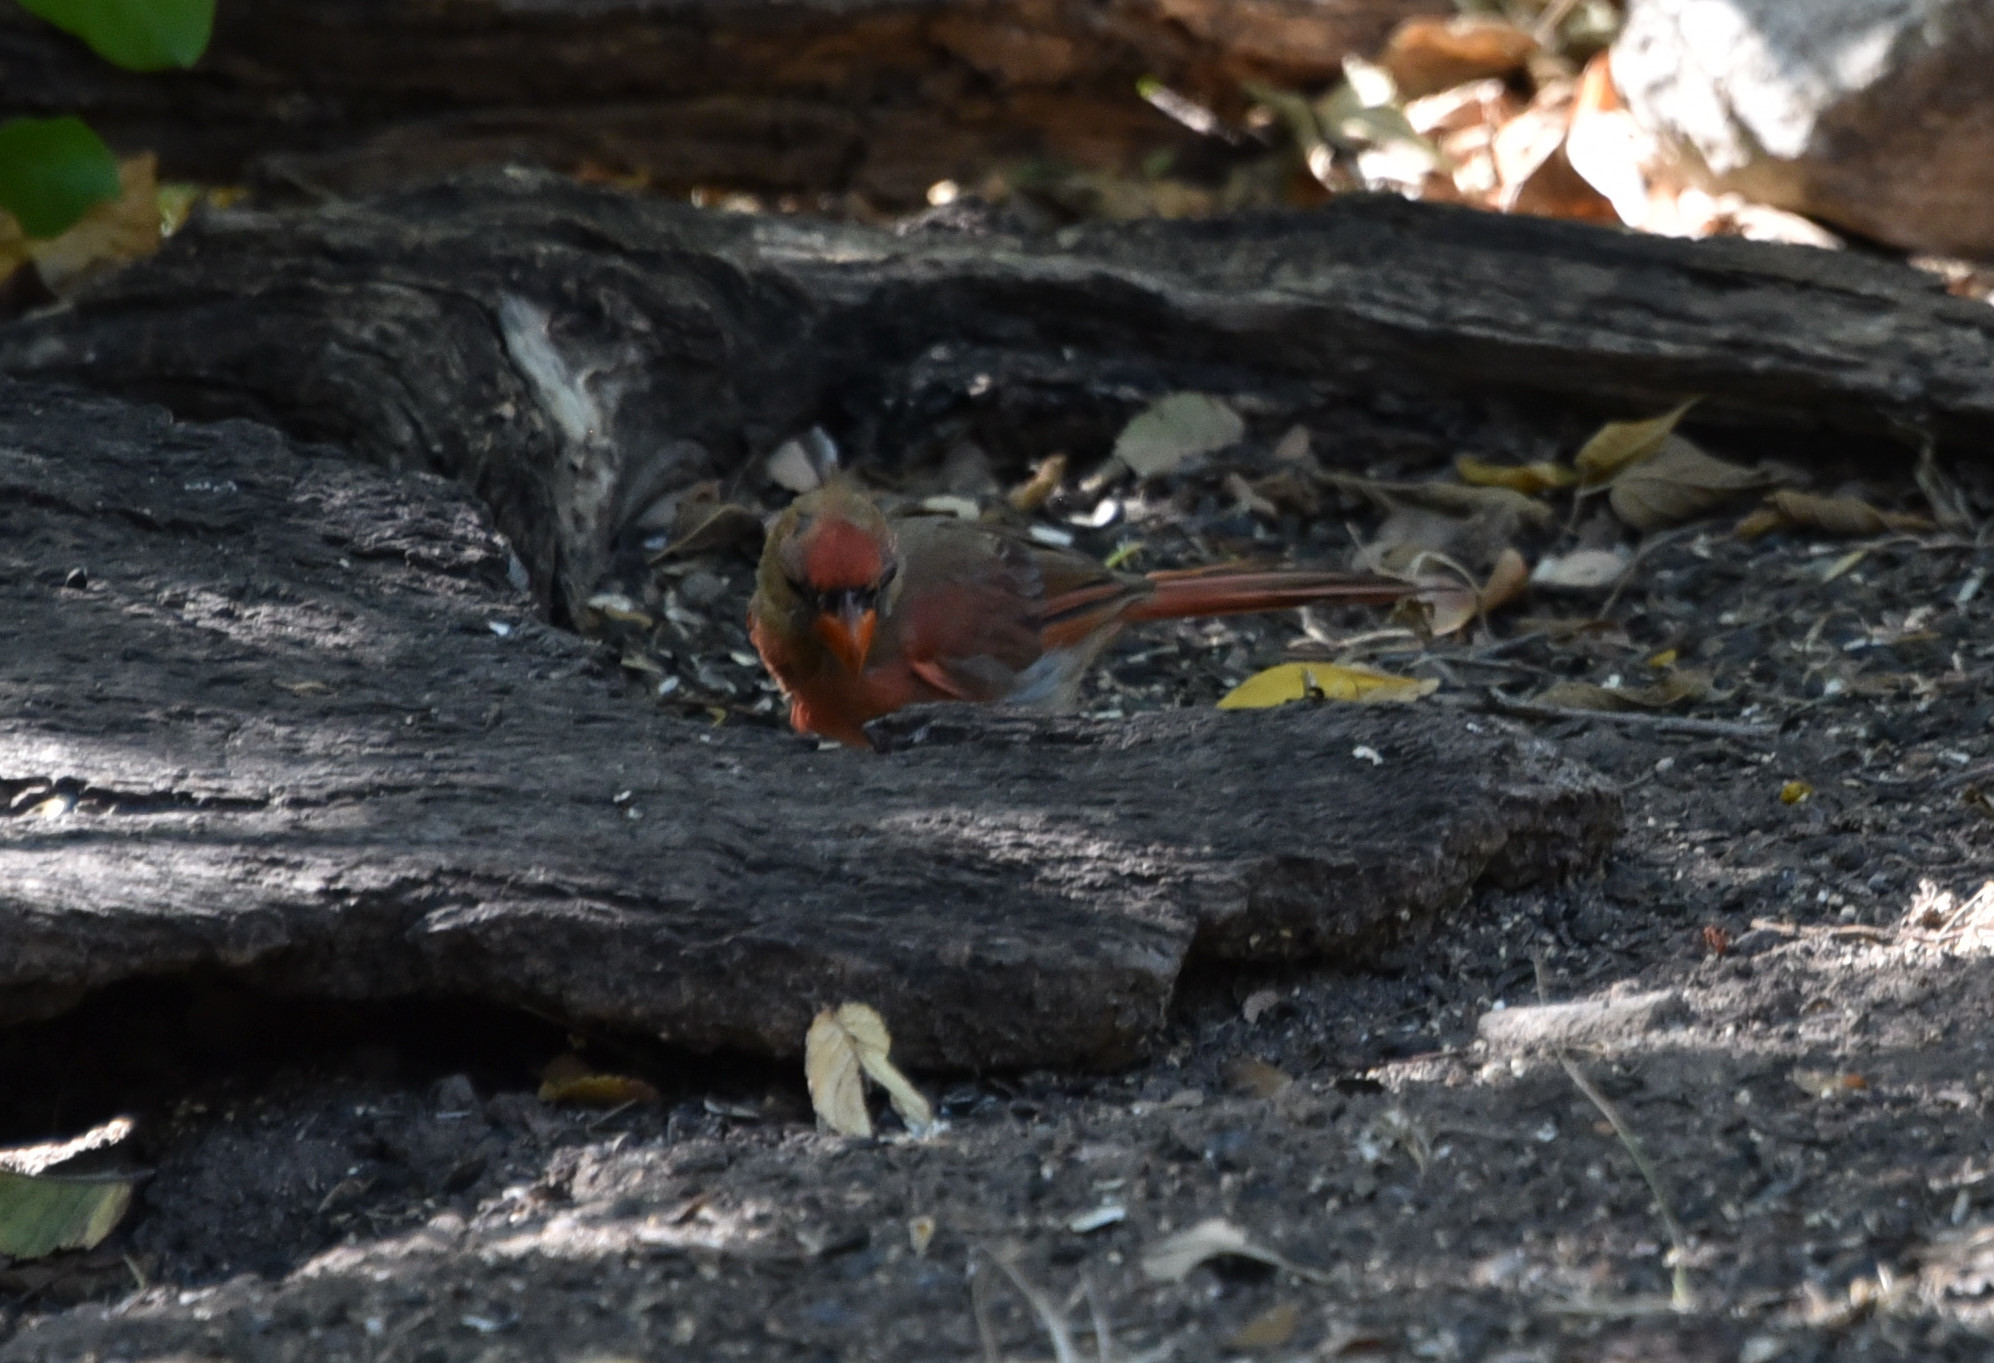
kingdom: Animalia
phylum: Chordata
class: Aves
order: Passeriformes
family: Cardinalidae
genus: Cardinalis
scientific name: Cardinalis cardinalis
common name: Northern cardinal
